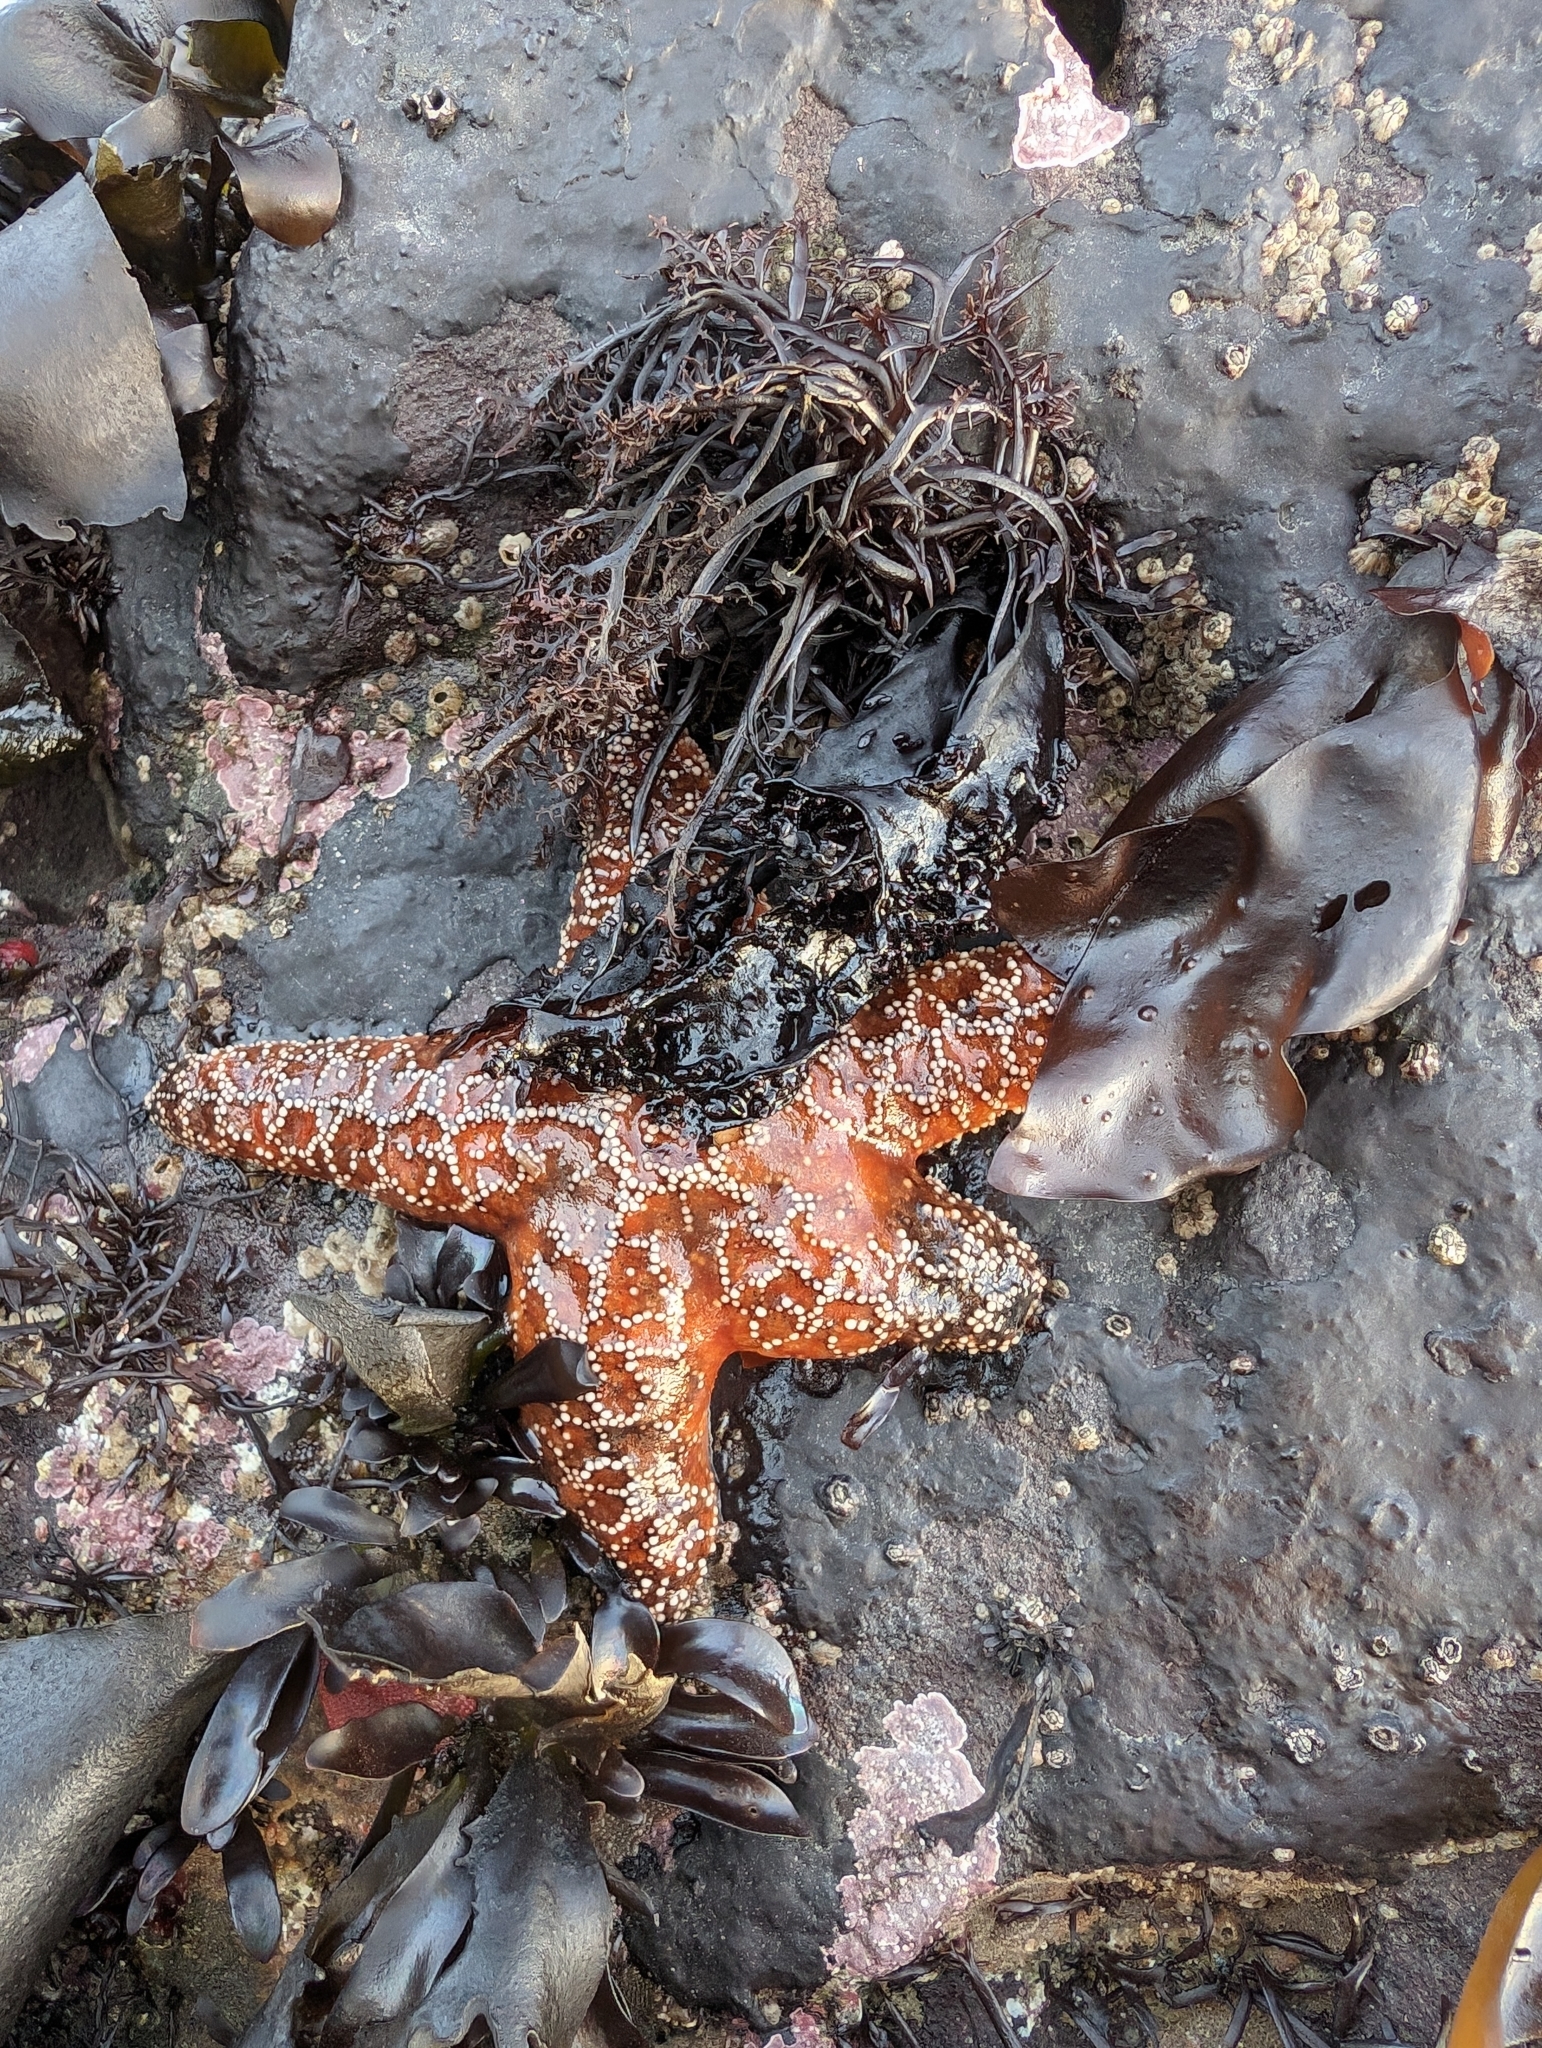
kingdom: Animalia
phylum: Echinodermata
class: Asteroidea
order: Forcipulatida
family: Asteriidae
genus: Pisaster
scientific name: Pisaster ochraceus
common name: Ochre stars
